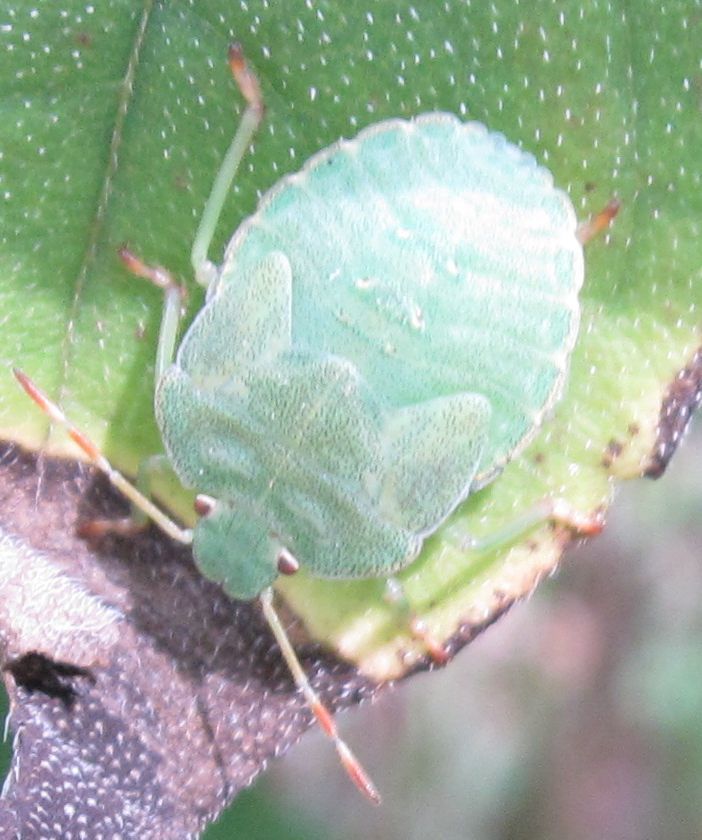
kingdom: Animalia
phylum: Arthropoda
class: Insecta
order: Hemiptera
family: Pentatomidae
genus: Palomena
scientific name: Palomena prasina
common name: Green shieldbug
